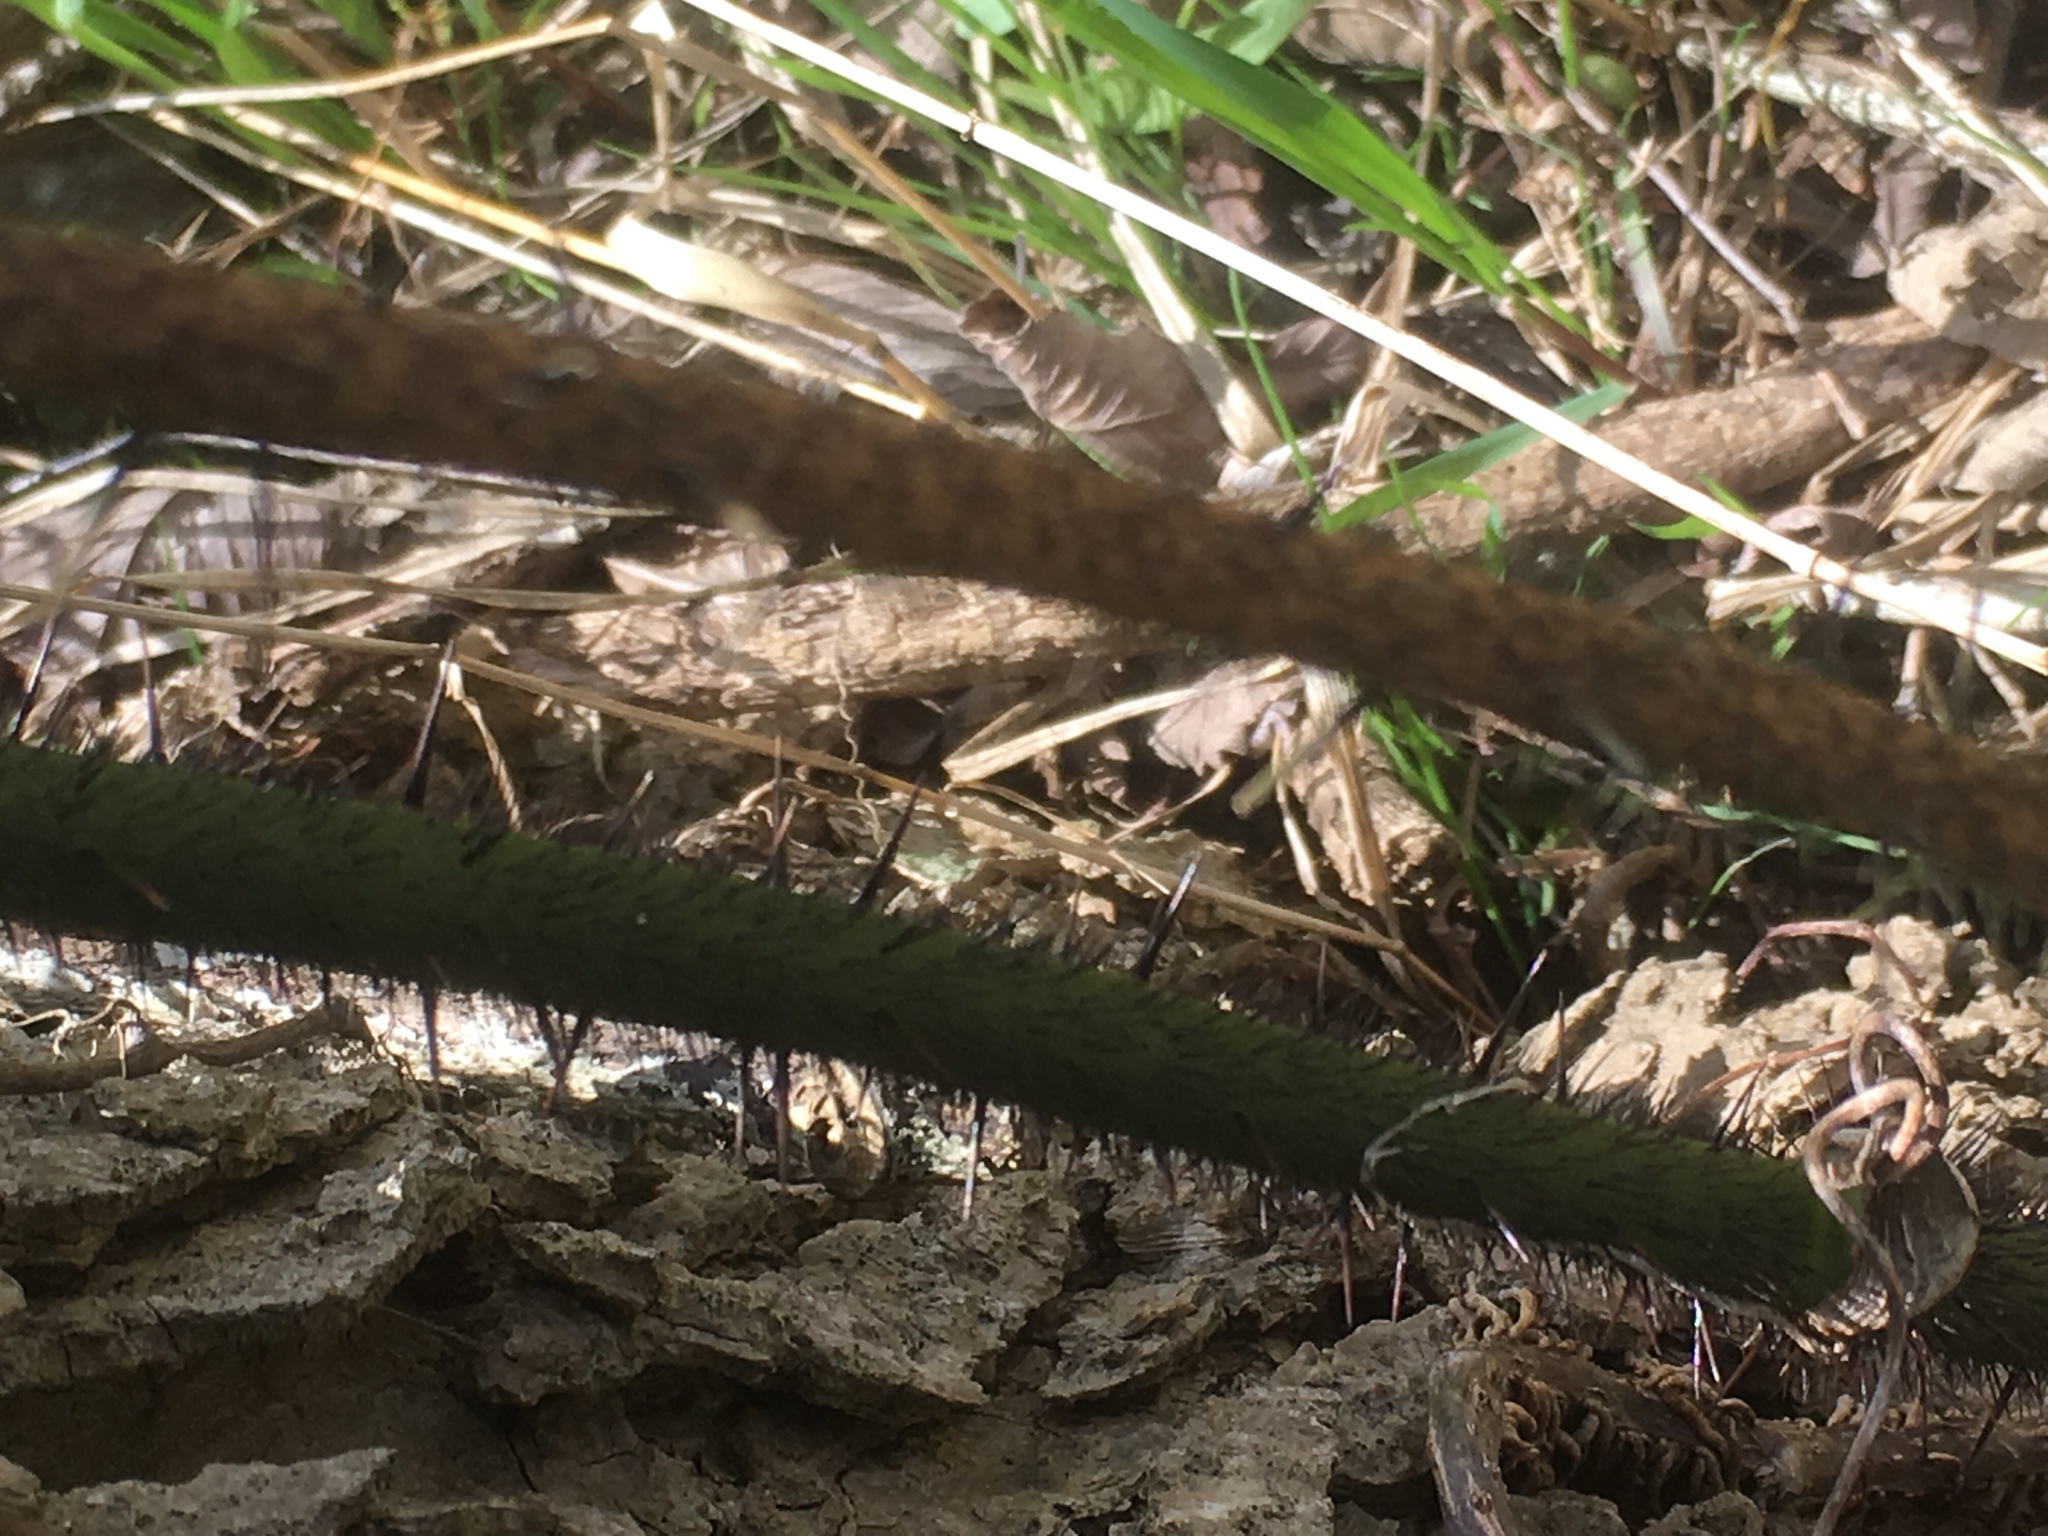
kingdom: Plantae
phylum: Tracheophyta
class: Liliopsida
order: Liliales
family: Smilacaceae
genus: Smilax
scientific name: Smilax tamnoides
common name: Hellfetter
